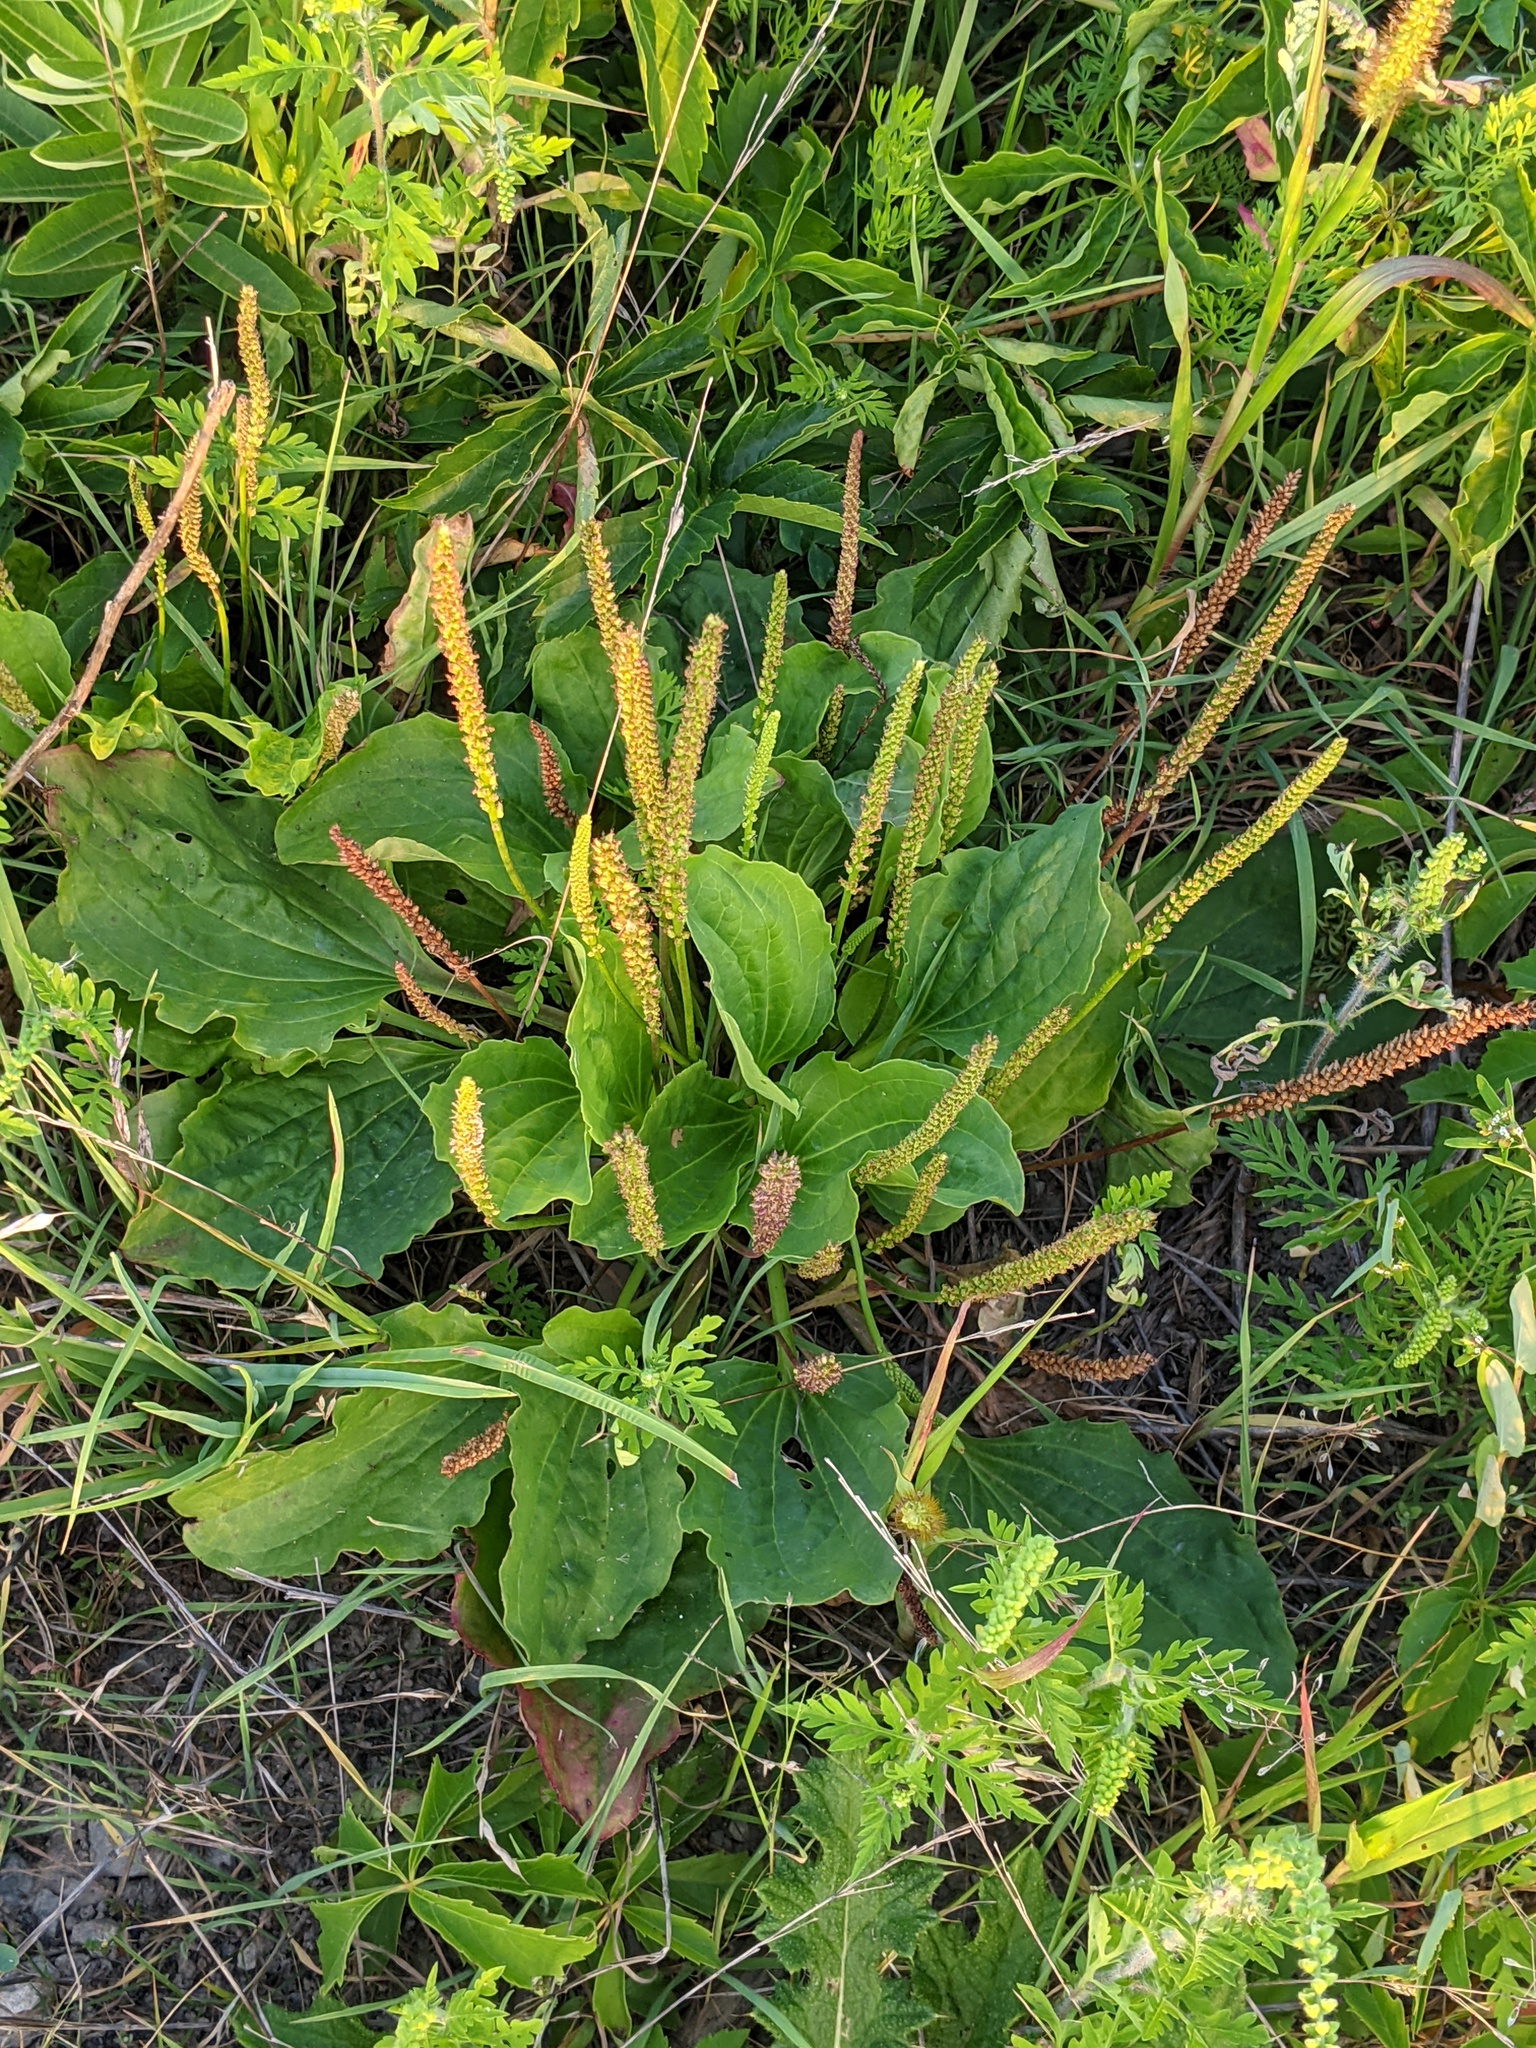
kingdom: Plantae
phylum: Tracheophyta
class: Magnoliopsida
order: Lamiales
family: Plantaginaceae
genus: Plantago
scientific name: Plantago major
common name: Common plantain
